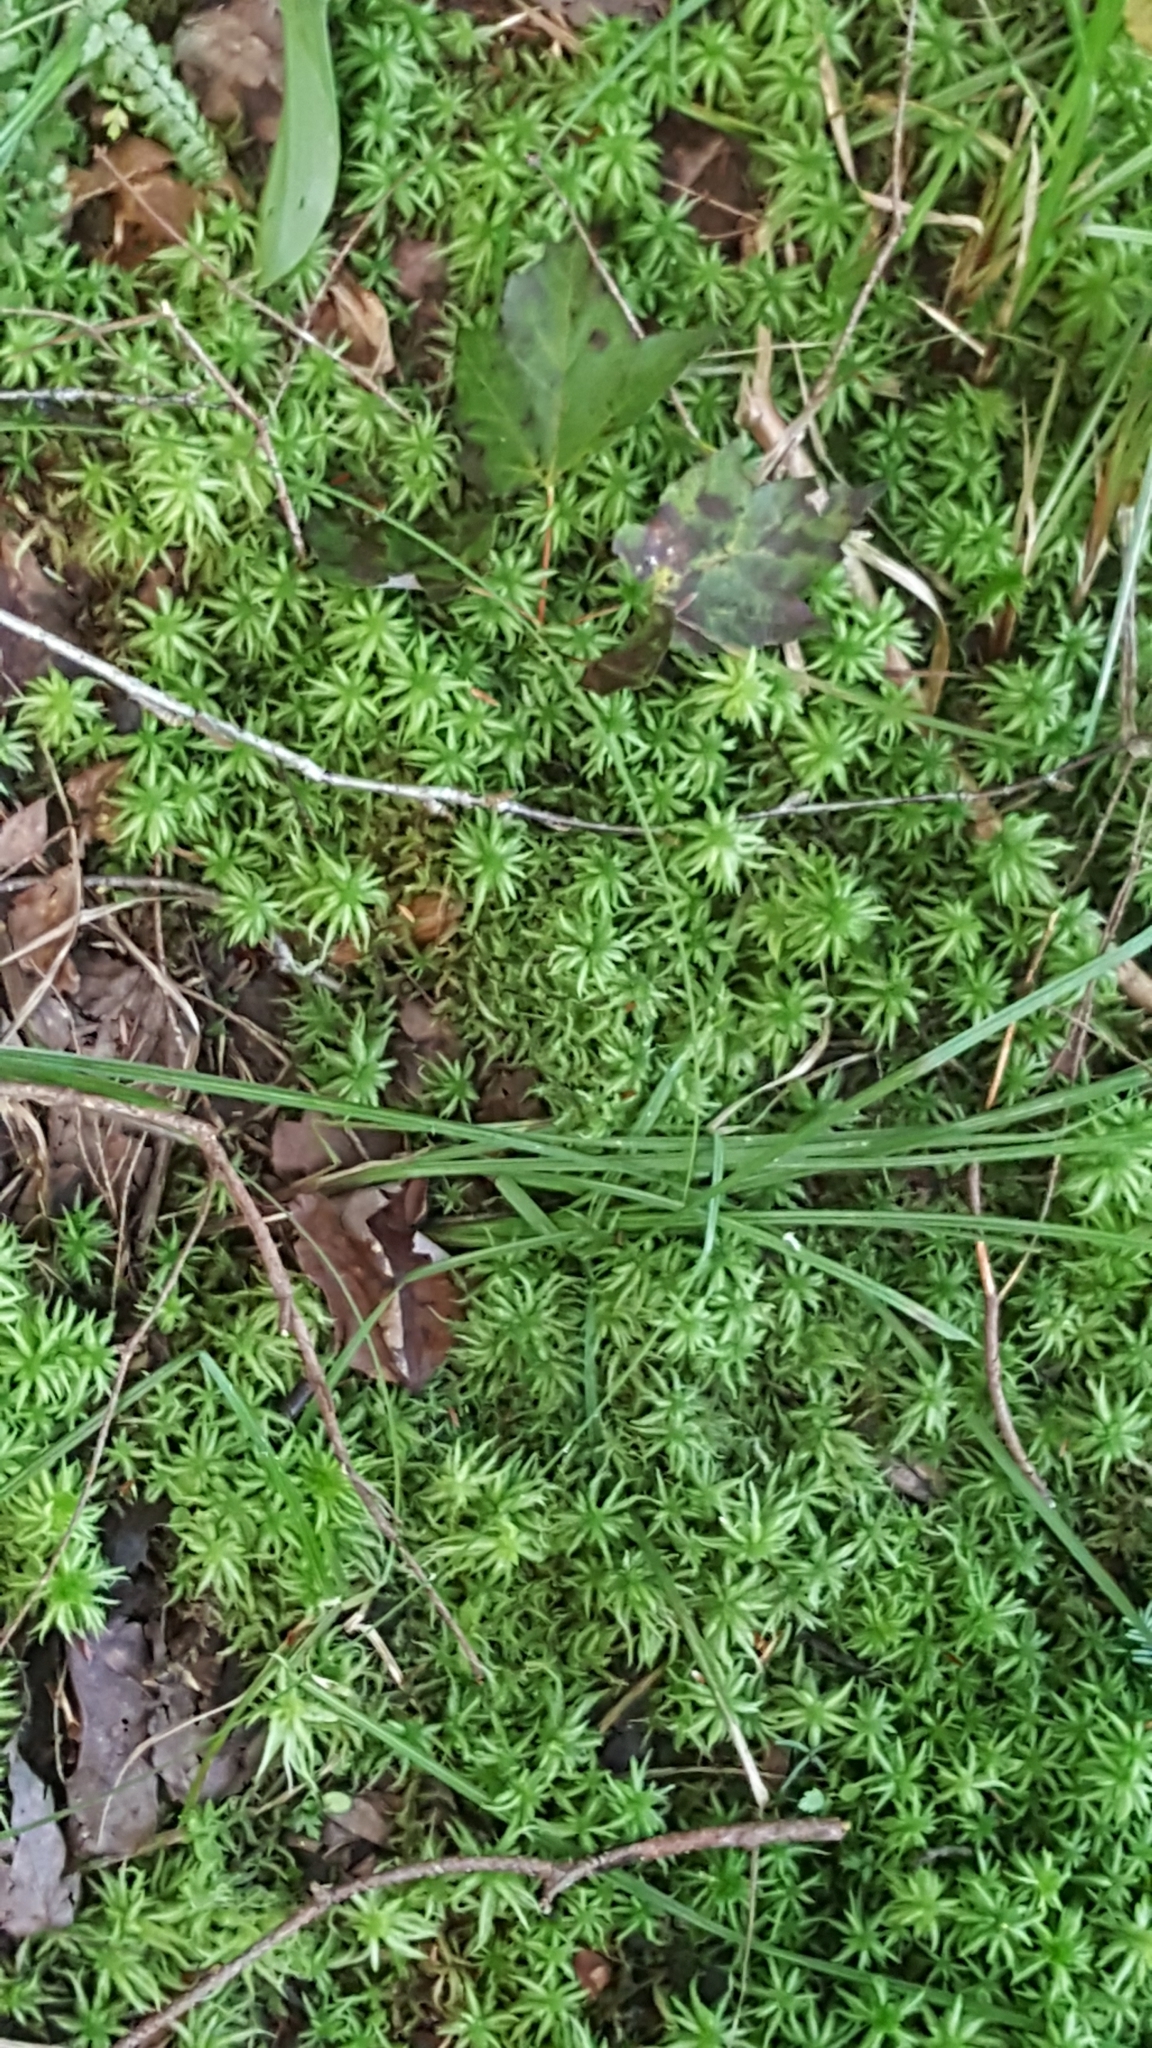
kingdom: Plantae
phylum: Bryophyta
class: Sphagnopsida
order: Sphagnales
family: Sphagnaceae
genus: Sphagnum
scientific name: Sphagnum
